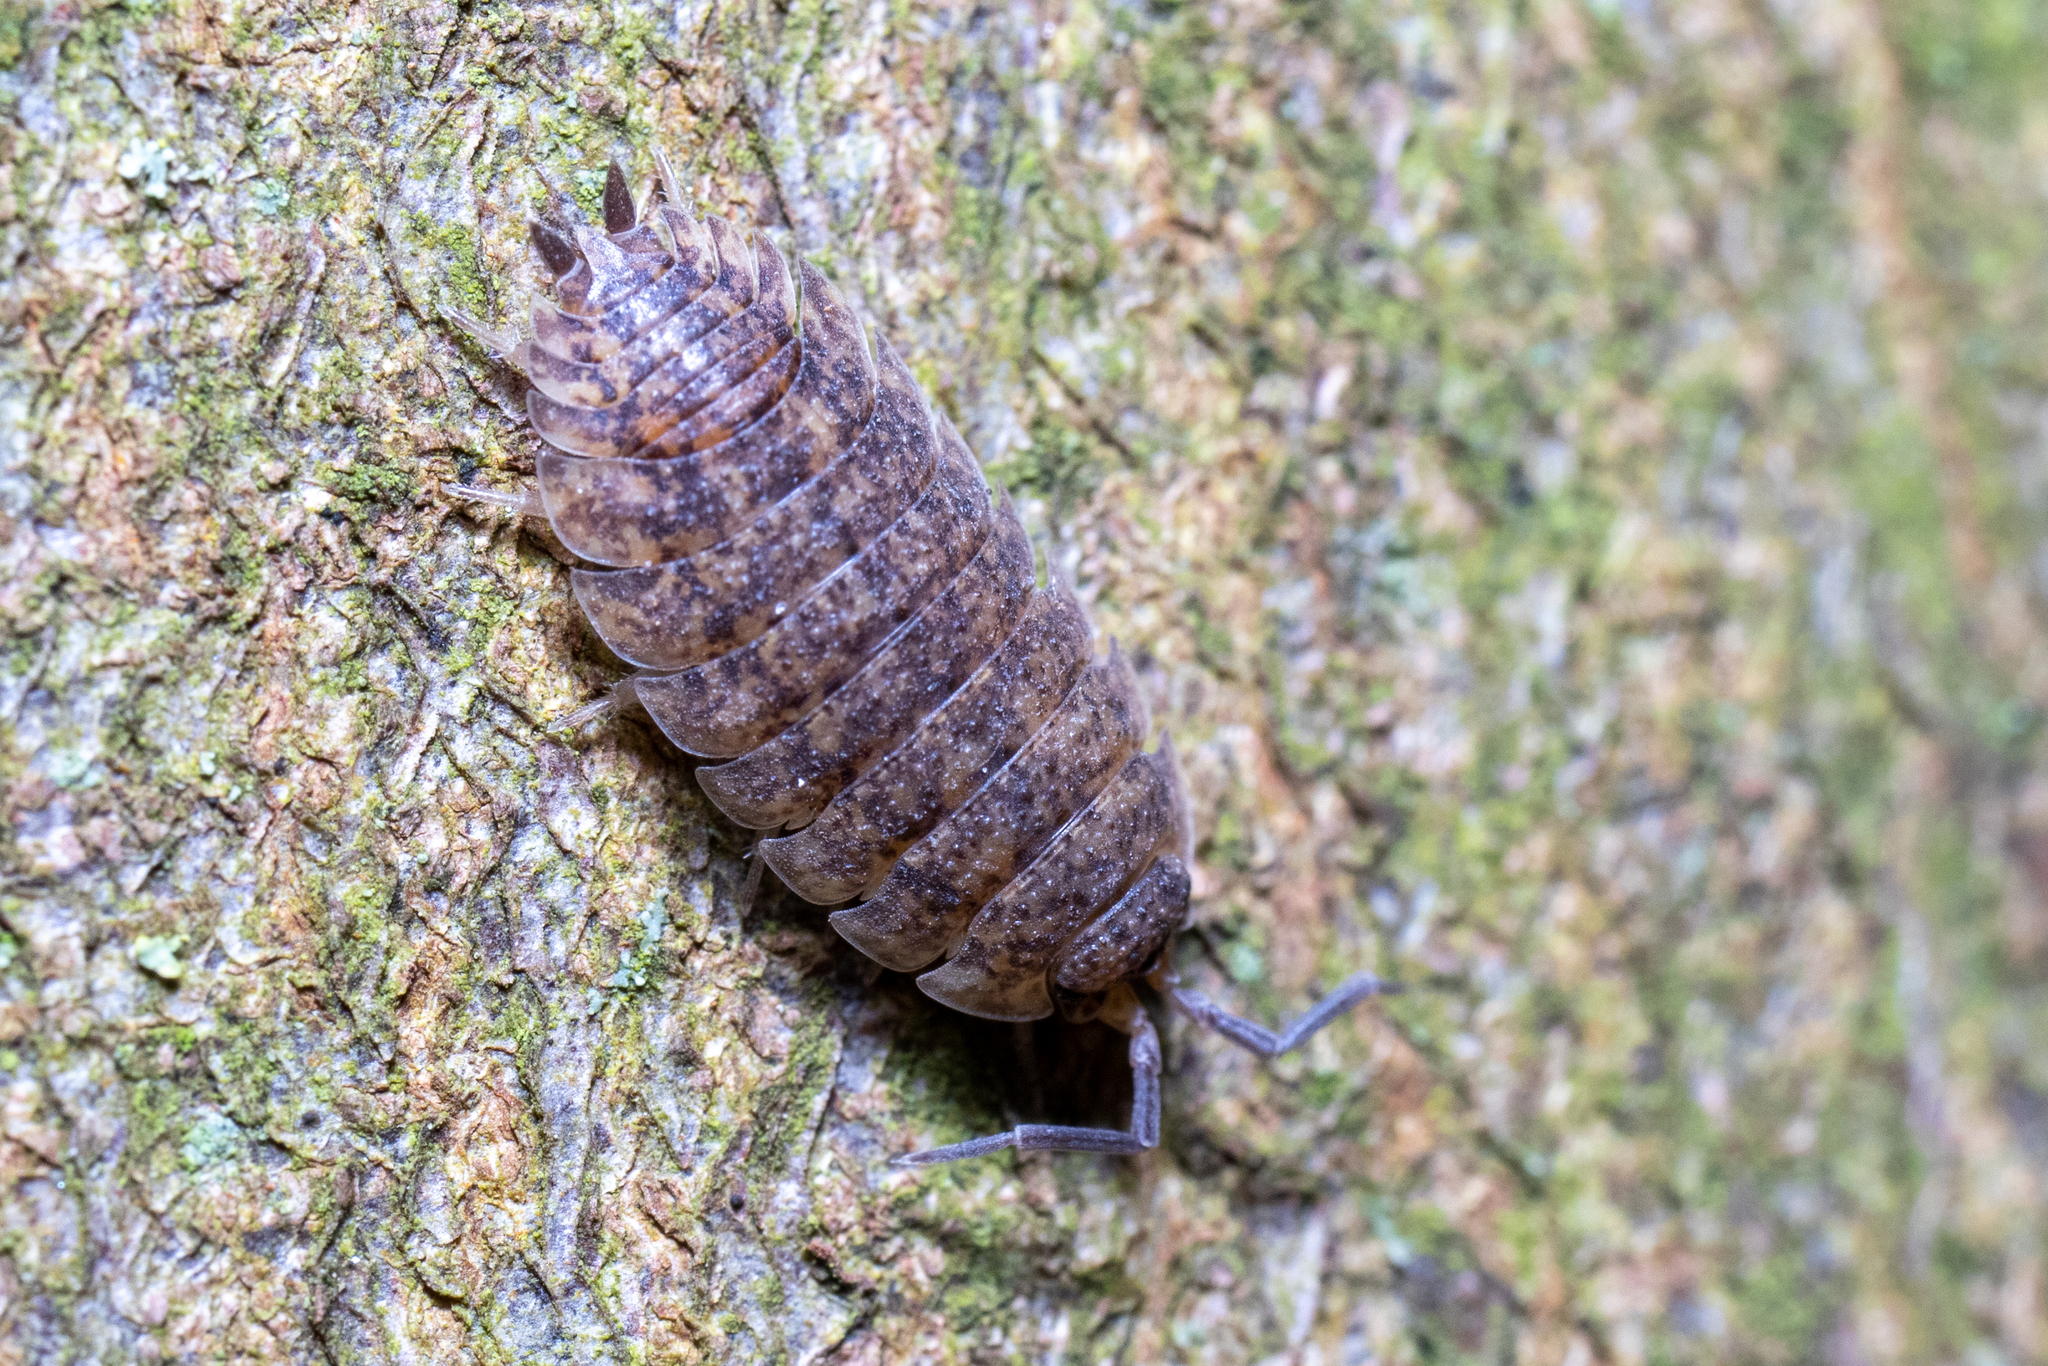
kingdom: Animalia
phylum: Arthropoda
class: Malacostraca
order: Isopoda
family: Porcellionidae
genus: Porcellio
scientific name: Porcellio scaber
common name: Common rough woodlouse
